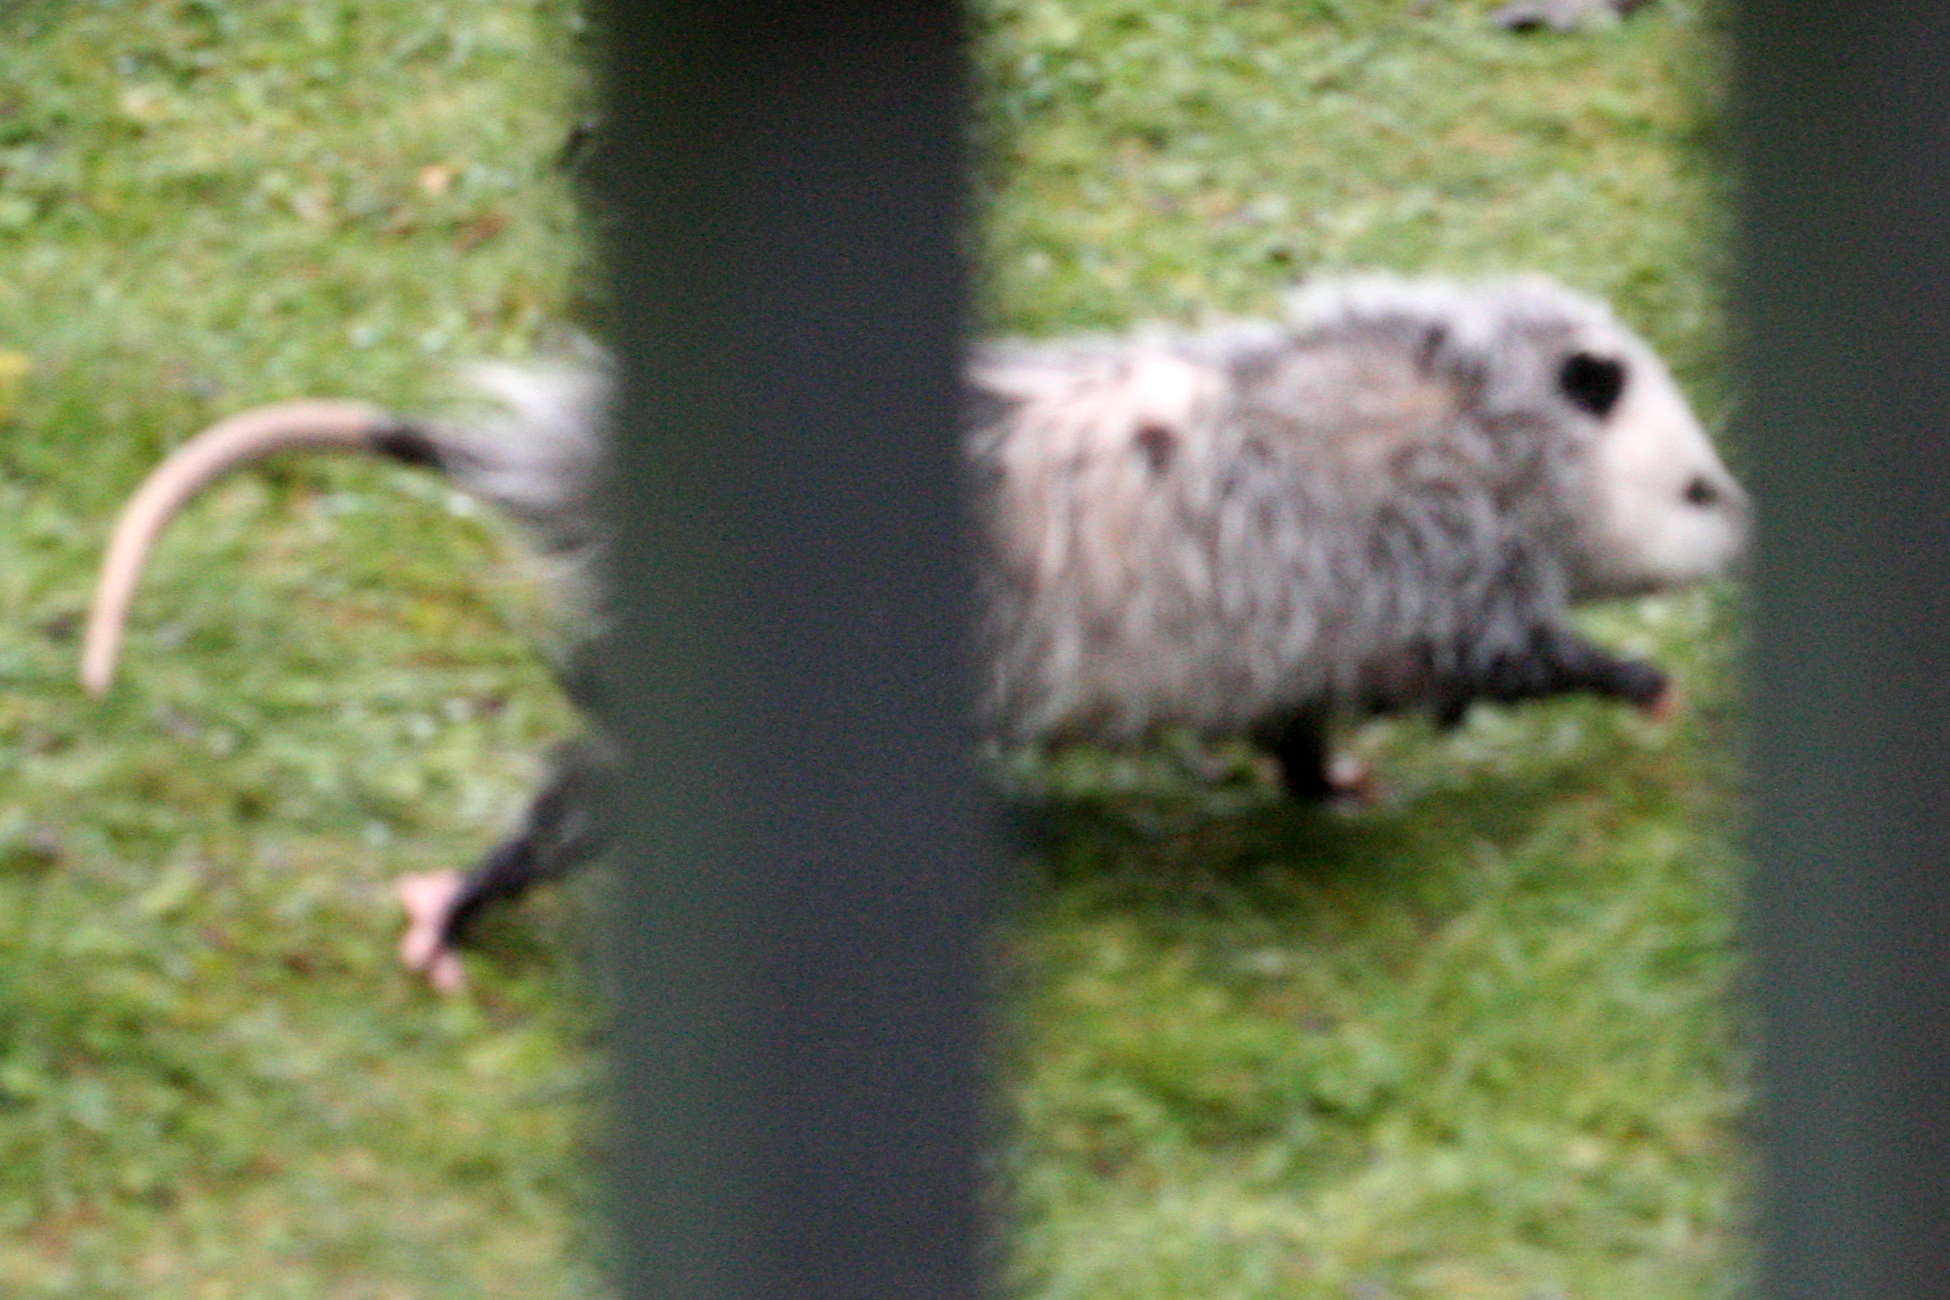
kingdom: Animalia
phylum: Chordata
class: Mammalia
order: Didelphimorphia
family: Didelphidae
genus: Didelphis
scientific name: Didelphis virginiana
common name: Virginia opossum
